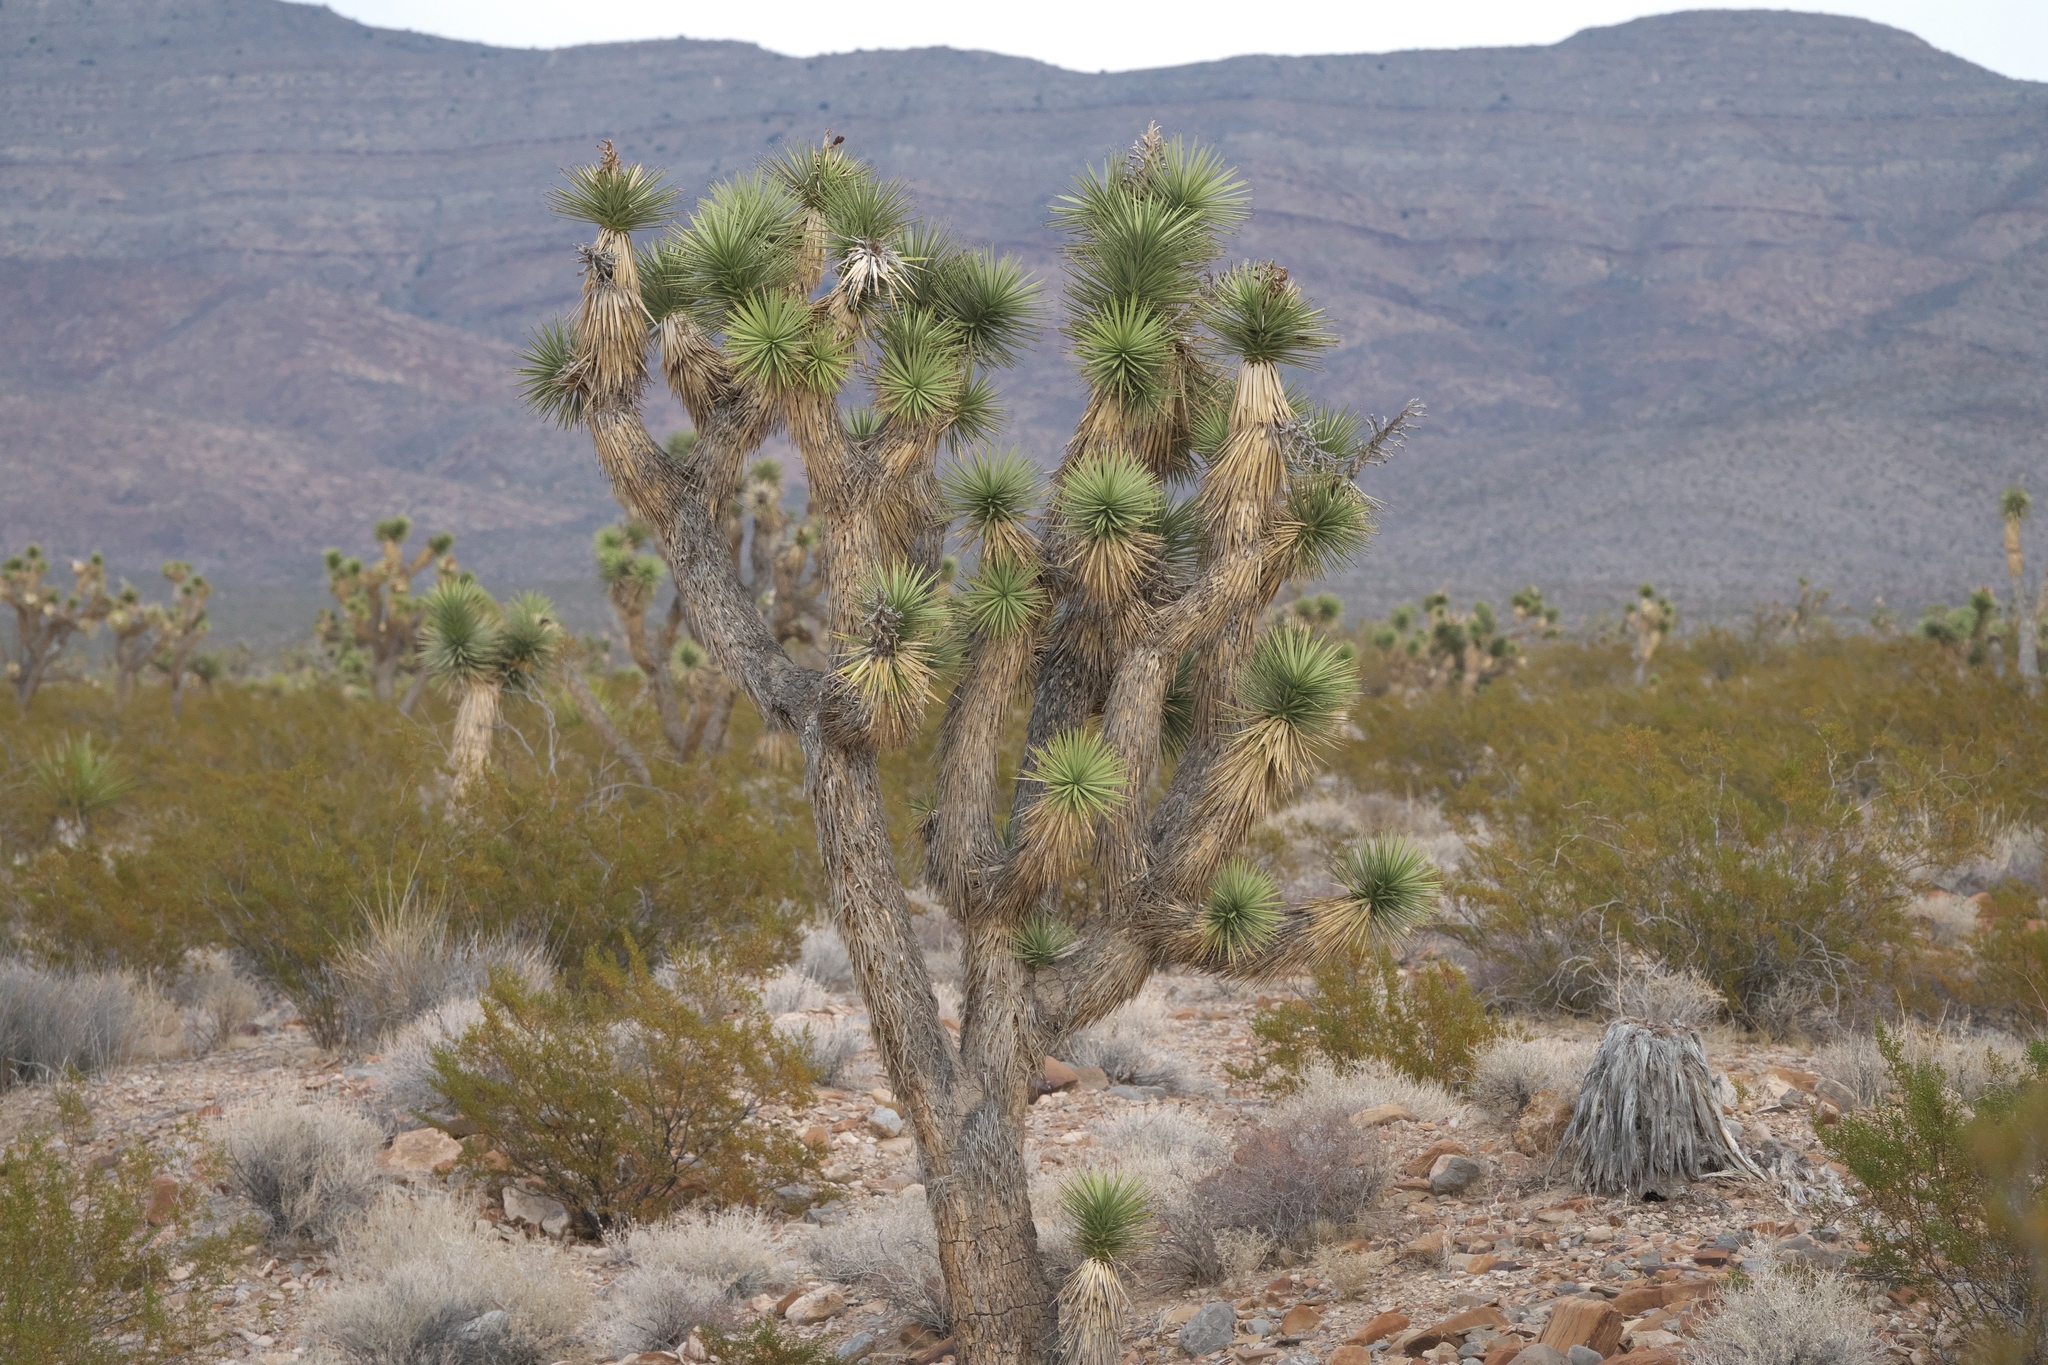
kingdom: Plantae
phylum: Tracheophyta
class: Liliopsida
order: Asparagales
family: Asparagaceae
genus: Yucca
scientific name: Yucca brevifolia
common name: Joshua tree
